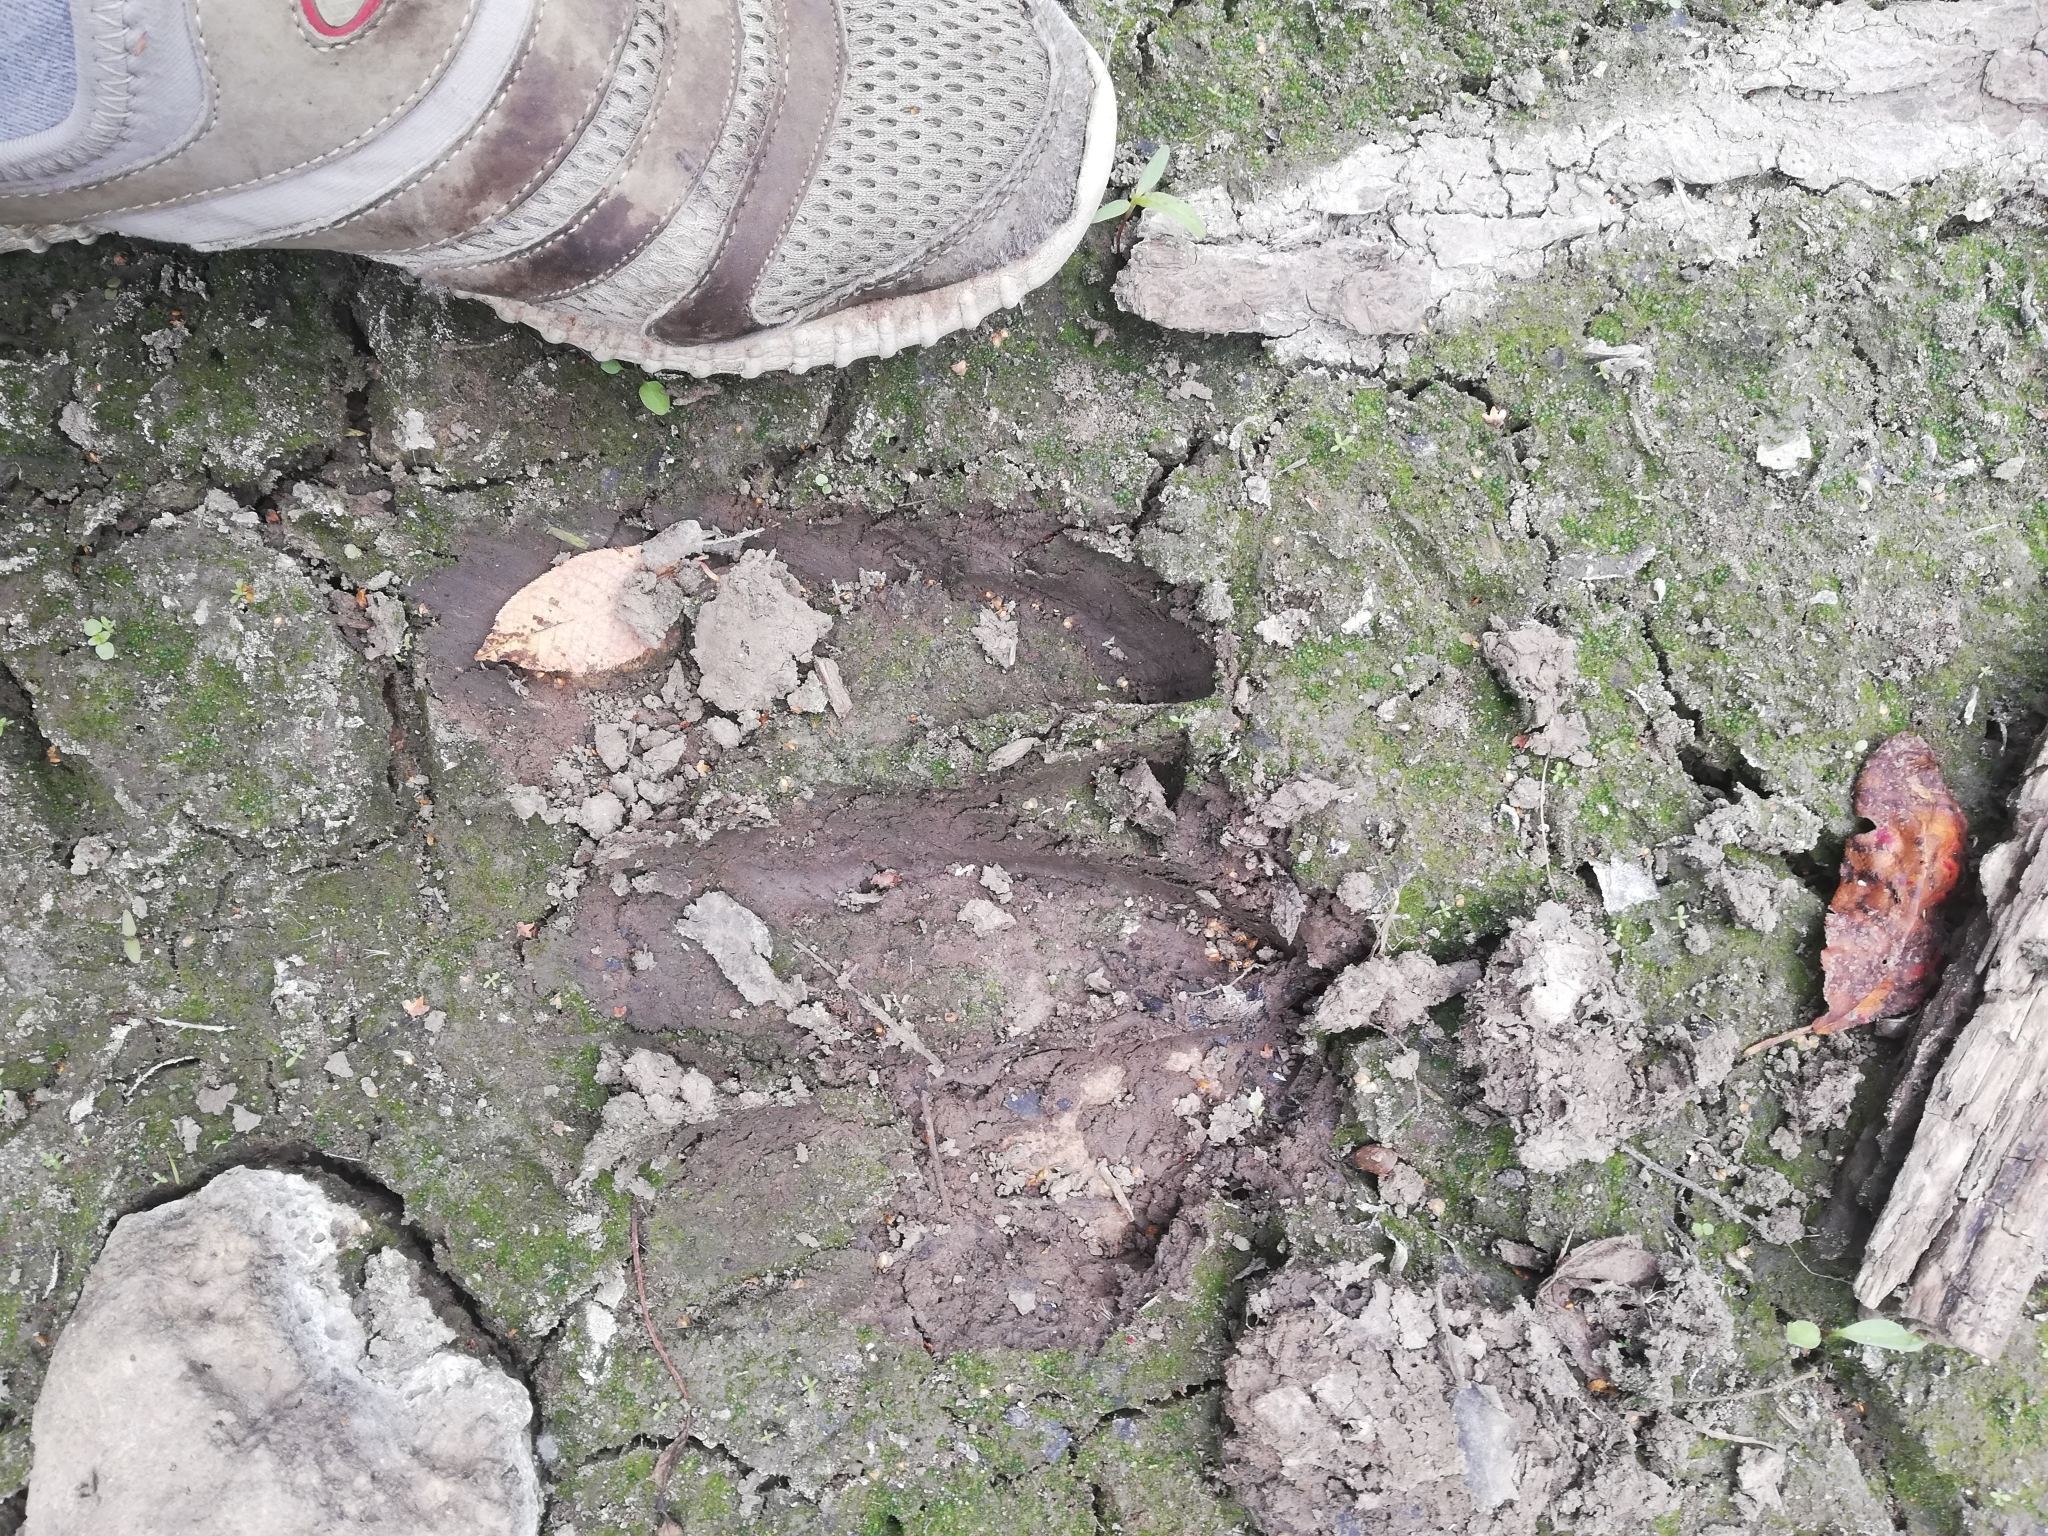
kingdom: Animalia
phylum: Chordata
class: Mammalia
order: Artiodactyla
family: Cervidae
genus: Alces
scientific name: Alces alces
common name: Moose
